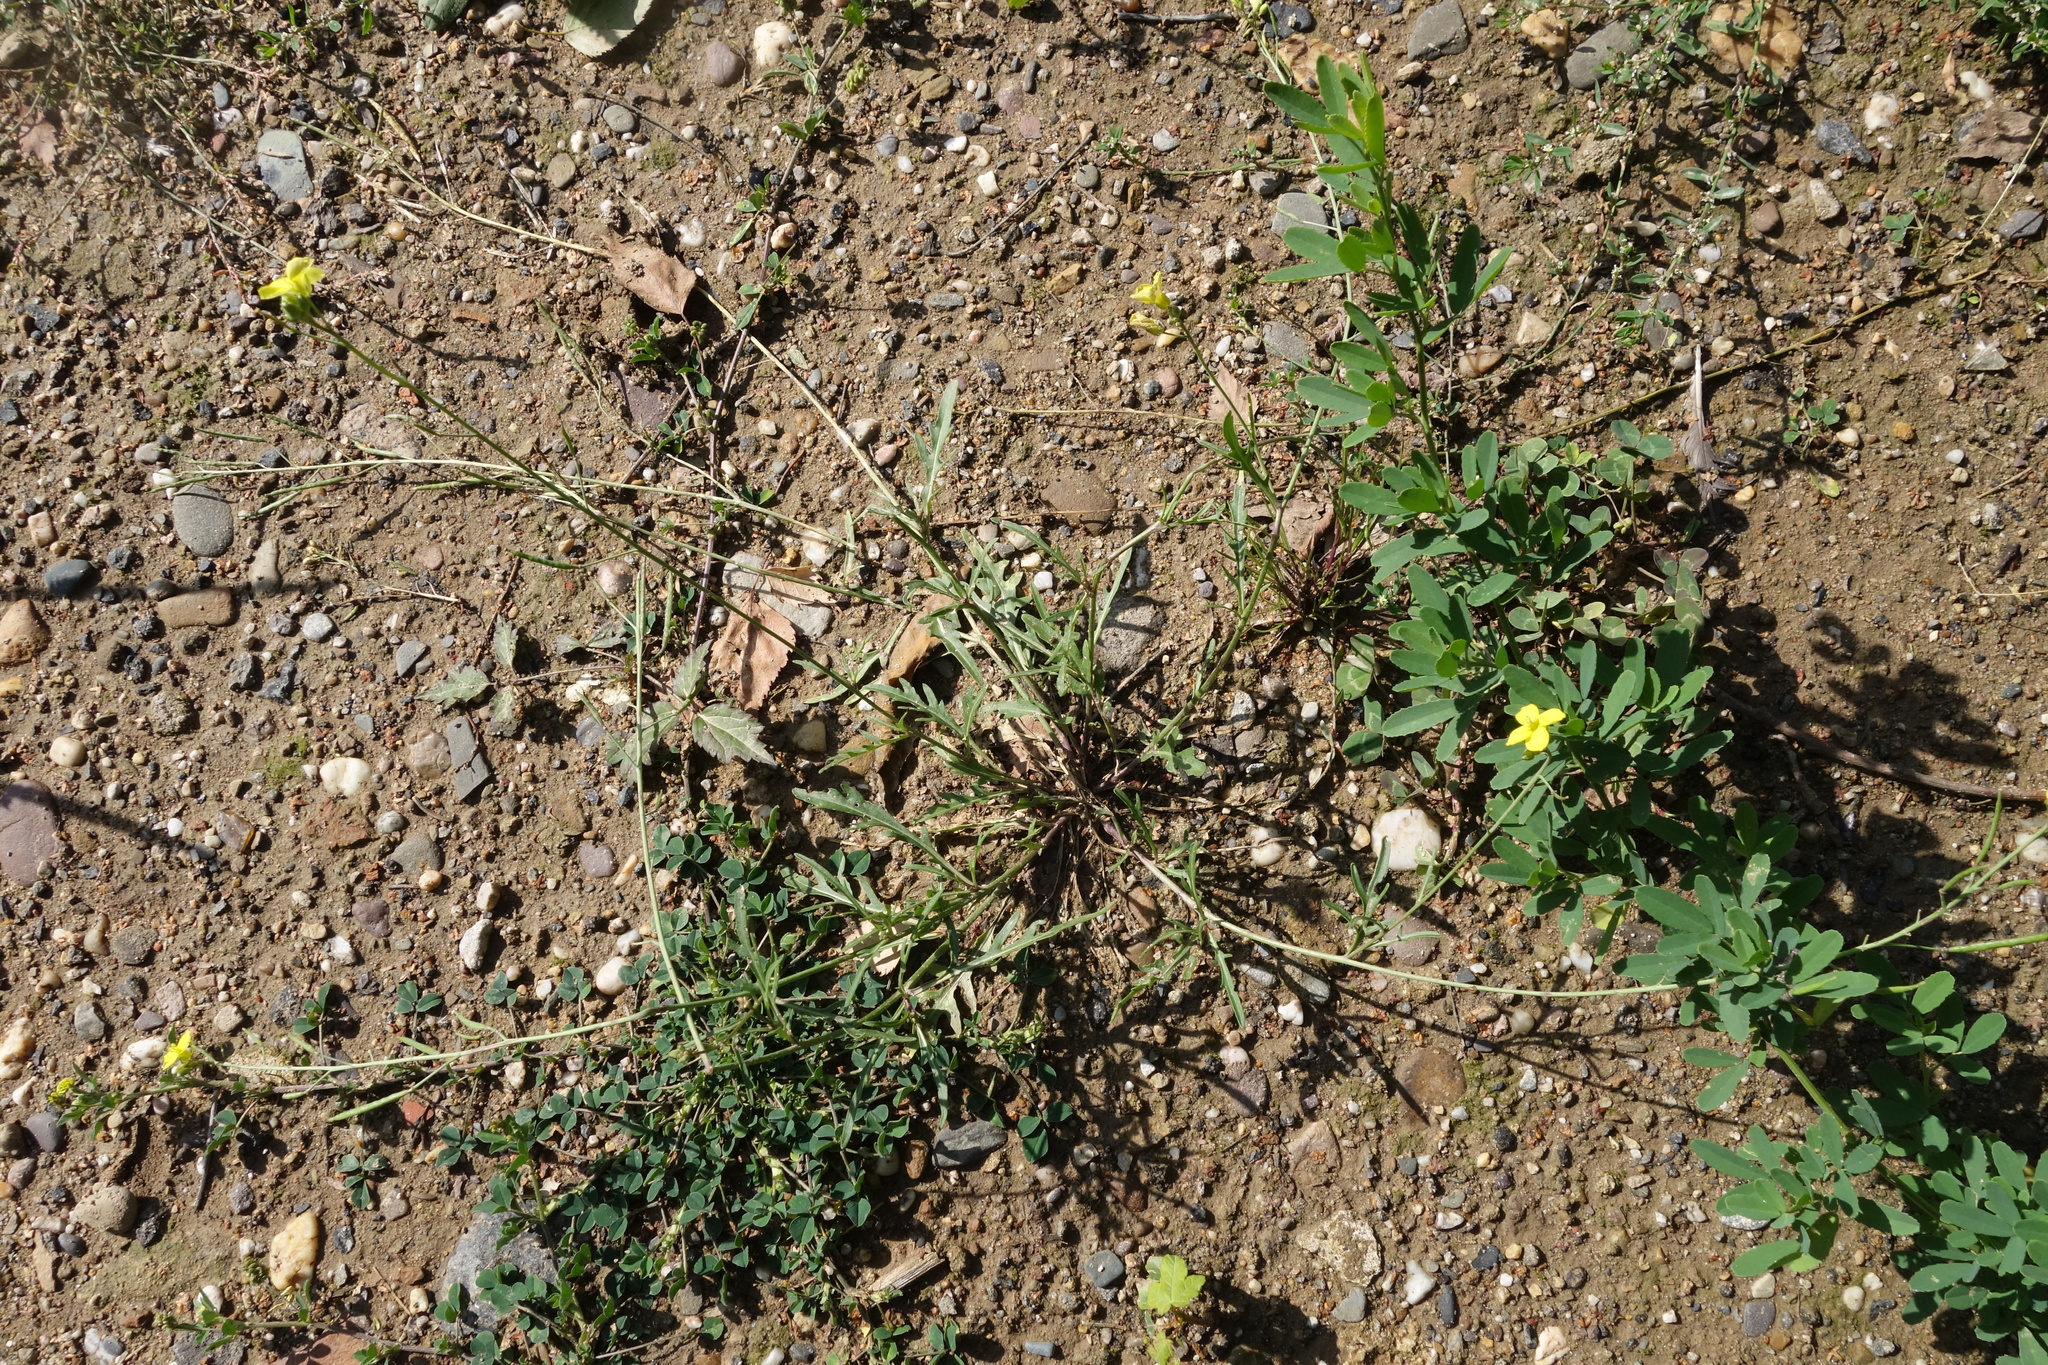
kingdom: Plantae
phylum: Tracheophyta
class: Magnoliopsida
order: Brassicales
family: Brassicaceae
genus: Diplotaxis
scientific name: Diplotaxis tenuifolia
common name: Perennial wall-rocket
